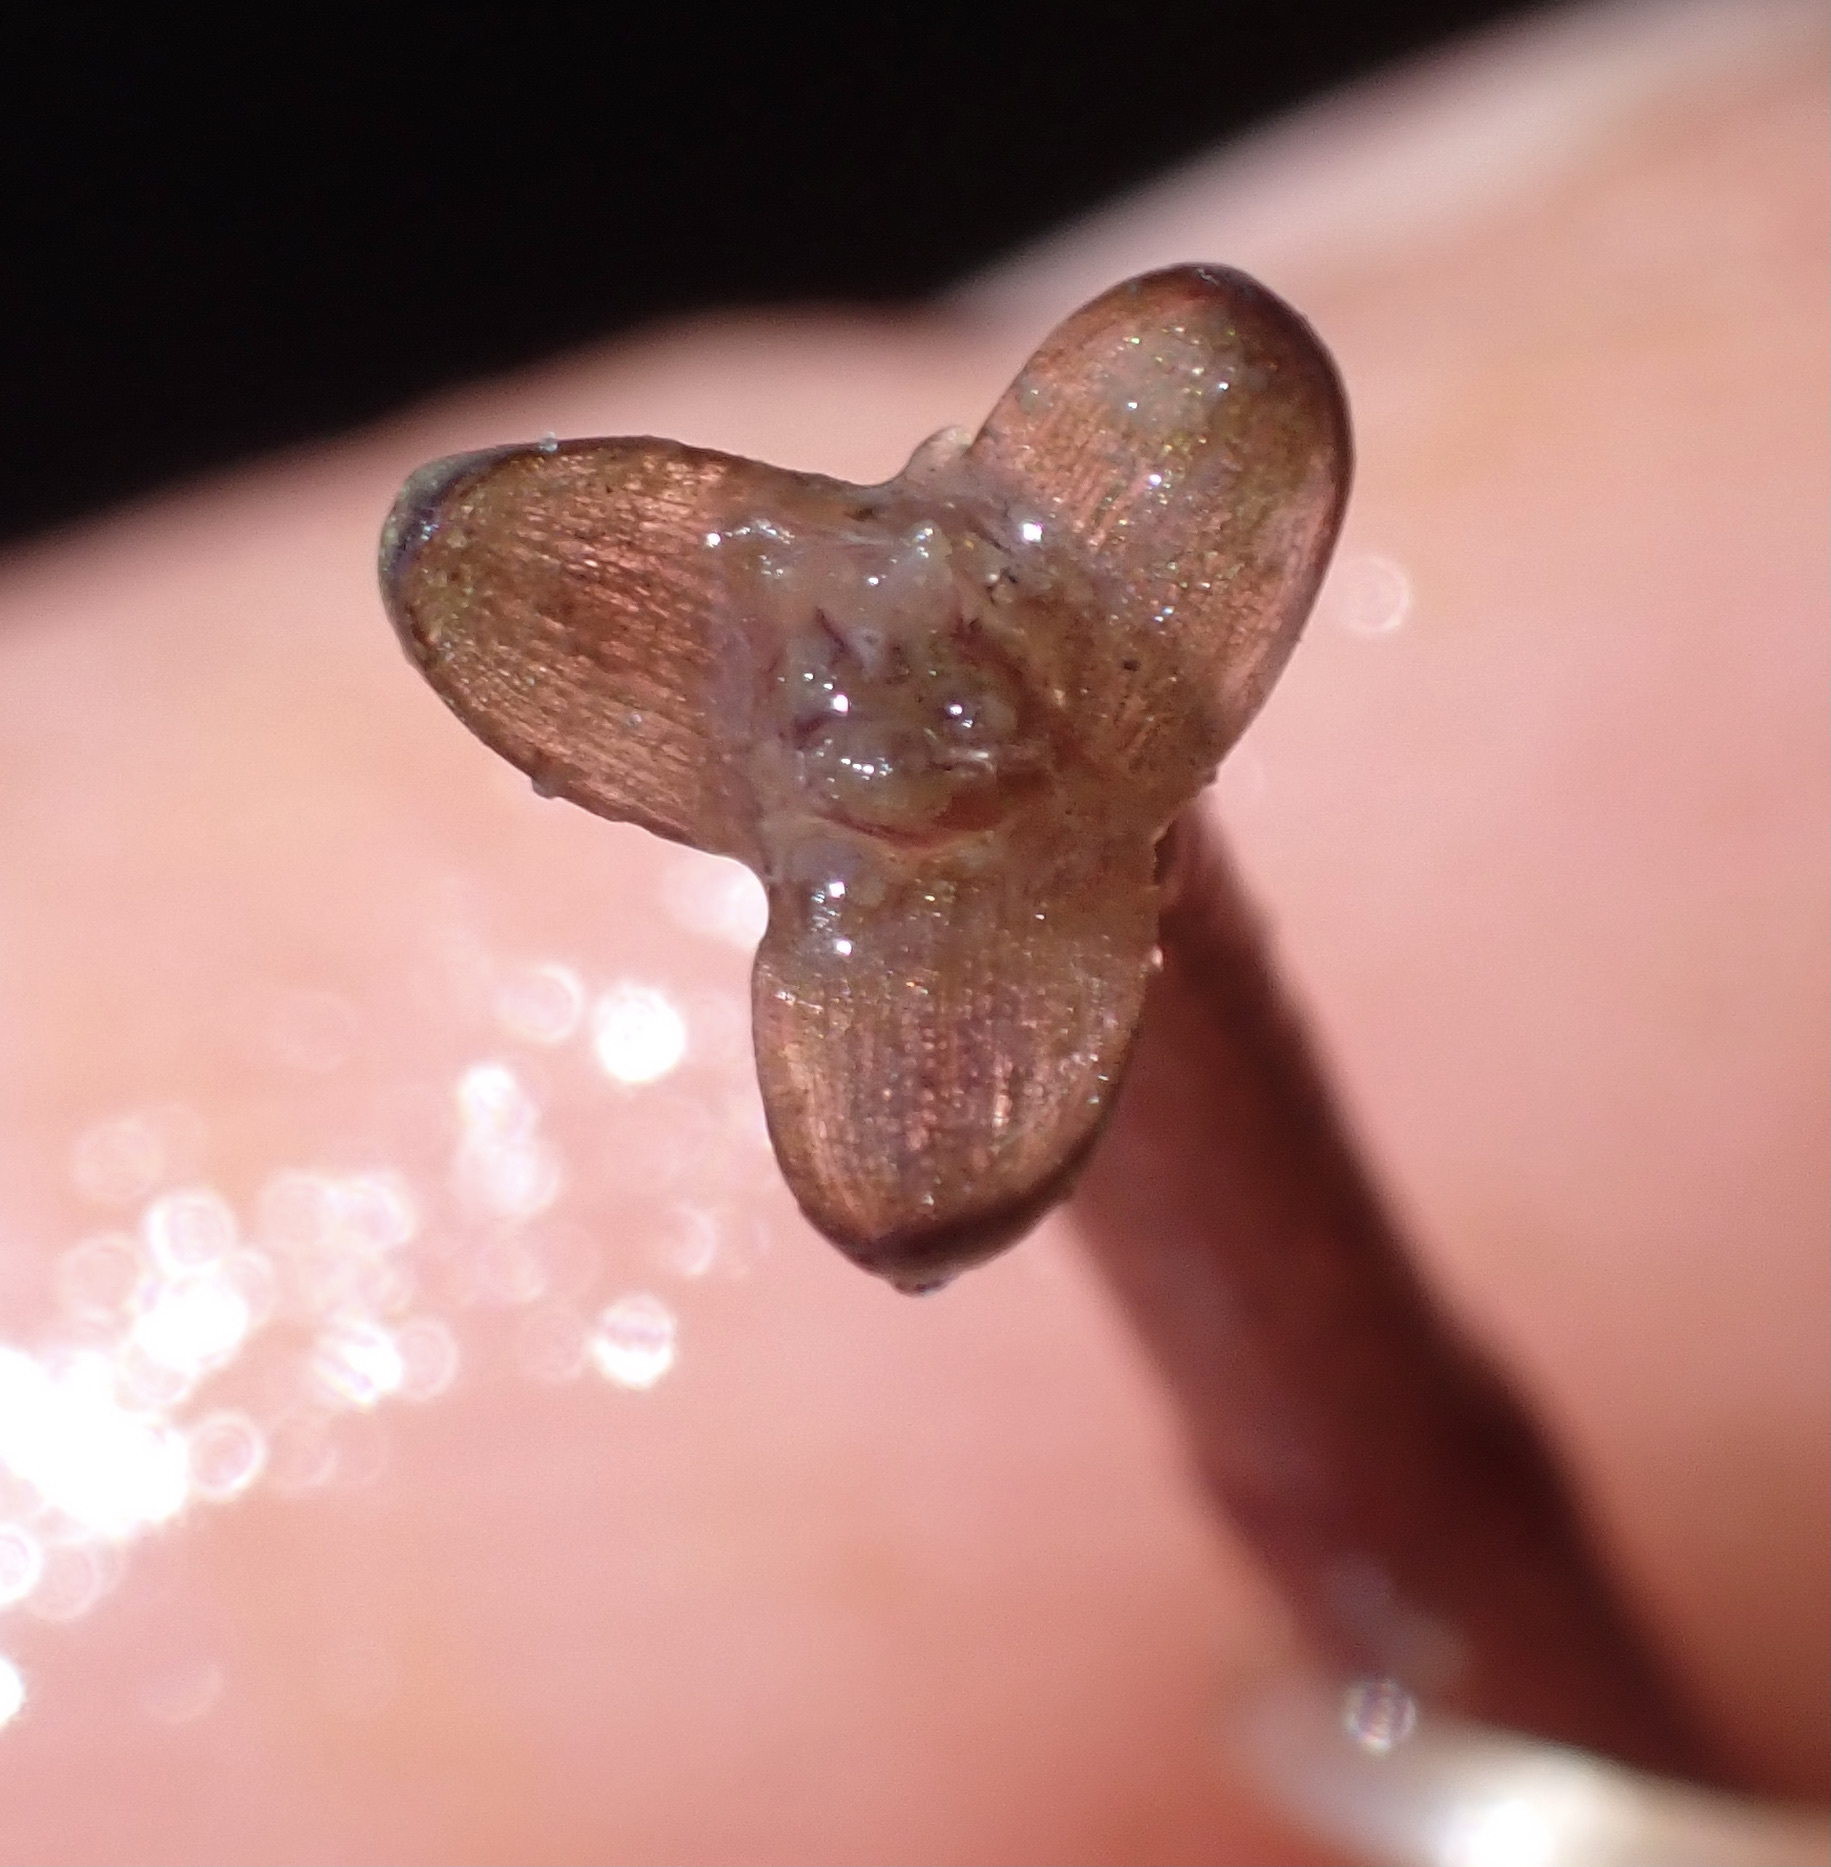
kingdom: Plantae
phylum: Tracheophyta
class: Liliopsida
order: Alismatales
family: Hydrocharitaceae
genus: Vallisneria
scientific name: Vallisneria spiralis
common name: Tapegrass
